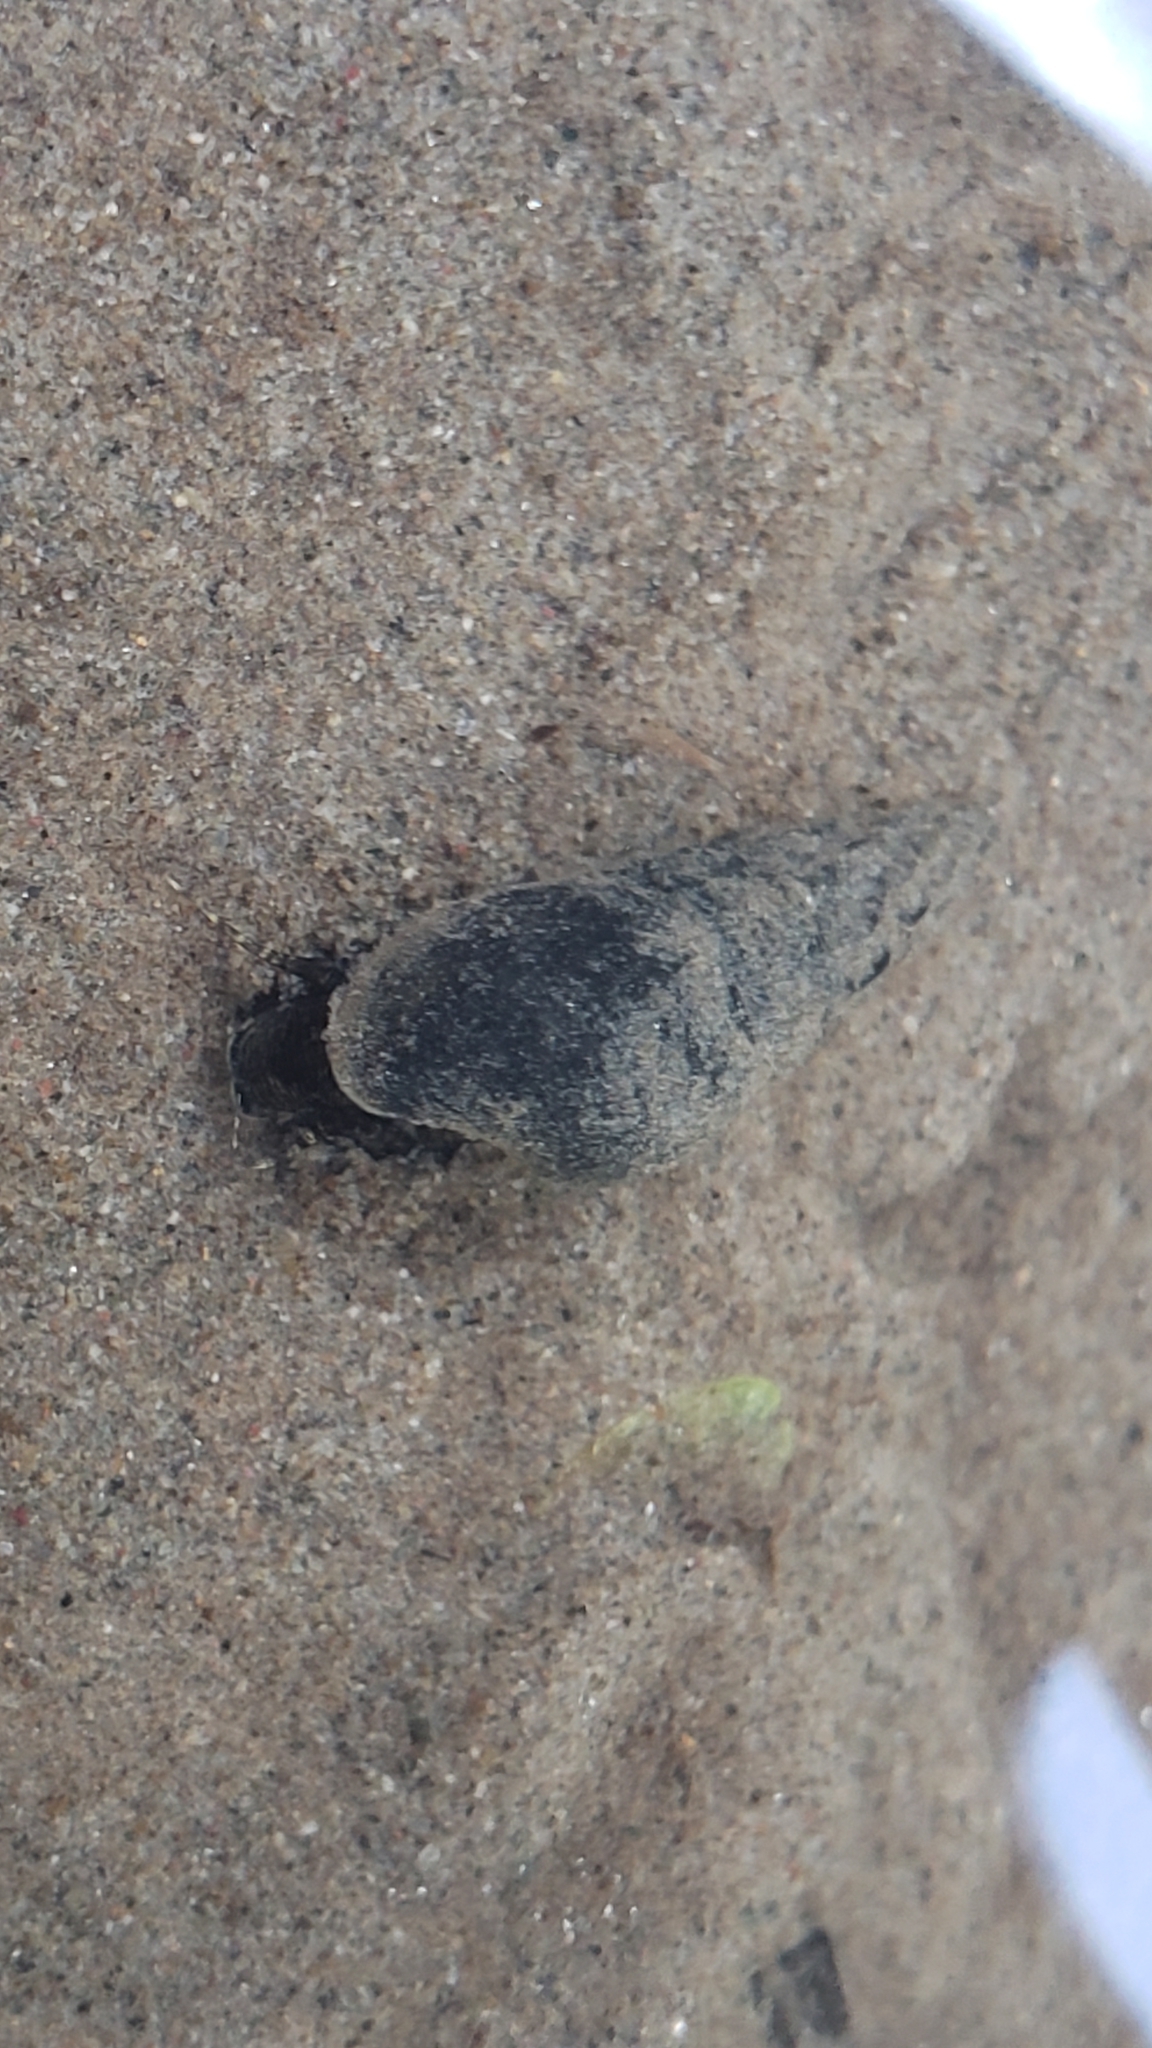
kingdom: Animalia
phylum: Mollusca
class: Gastropoda
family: Semisulcospiridae
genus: Juga
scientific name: Juga plicifera
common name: Pleated juga
